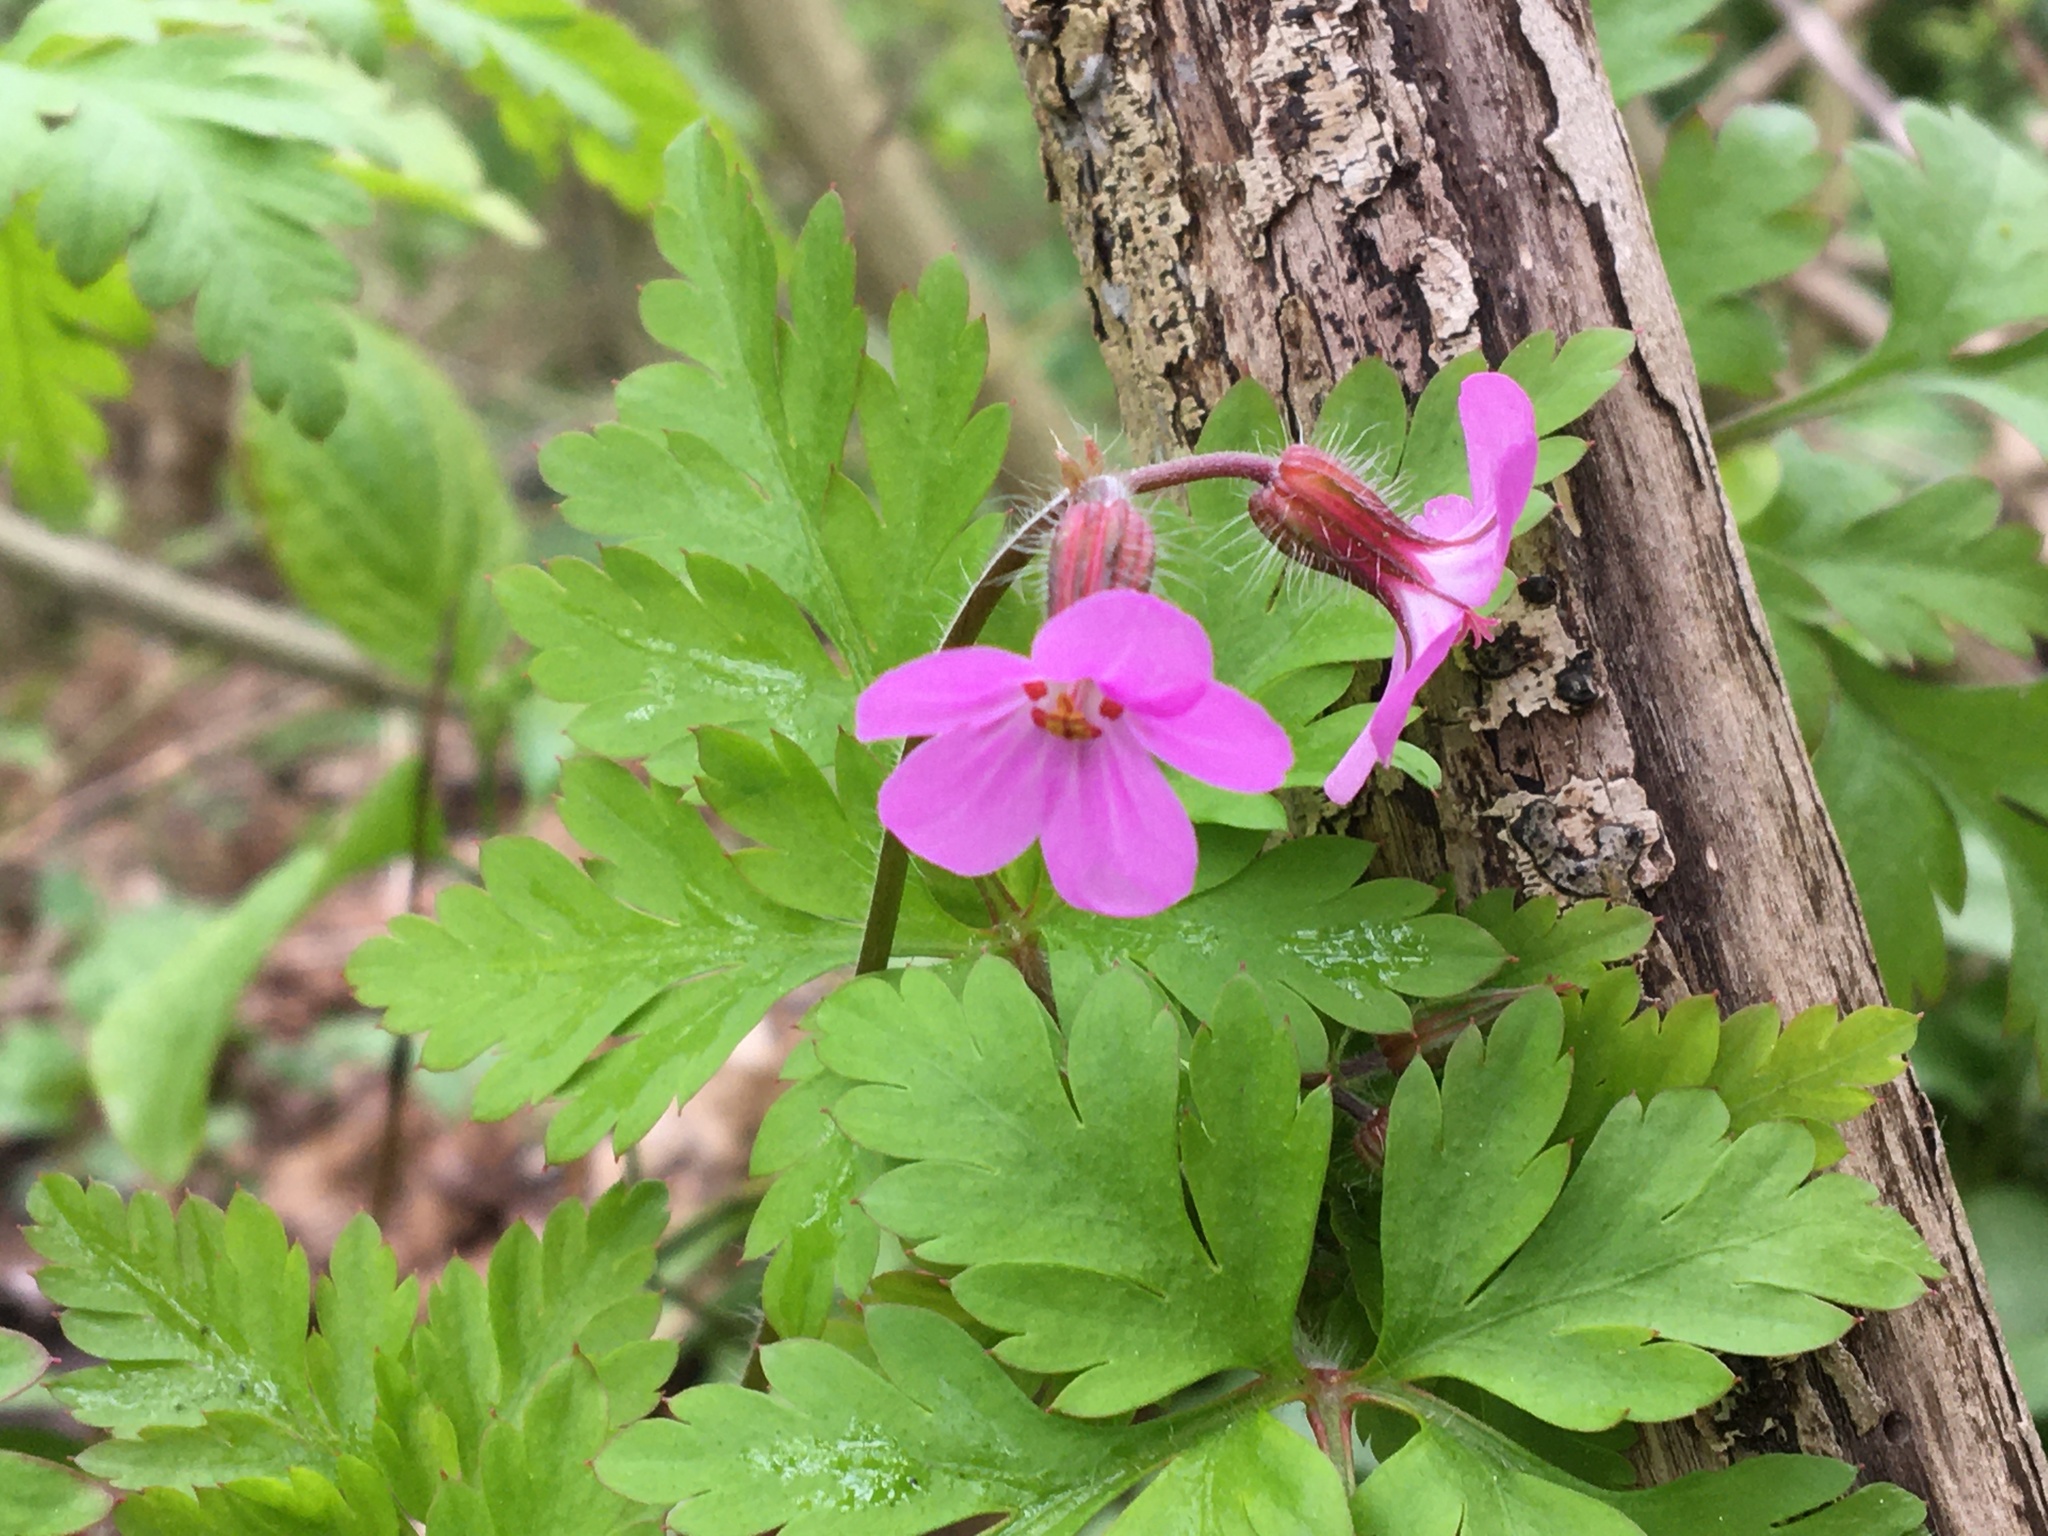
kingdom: Plantae
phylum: Tracheophyta
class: Magnoliopsida
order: Geraniales
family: Geraniaceae
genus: Geranium
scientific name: Geranium robertianum
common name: Herb-robert
